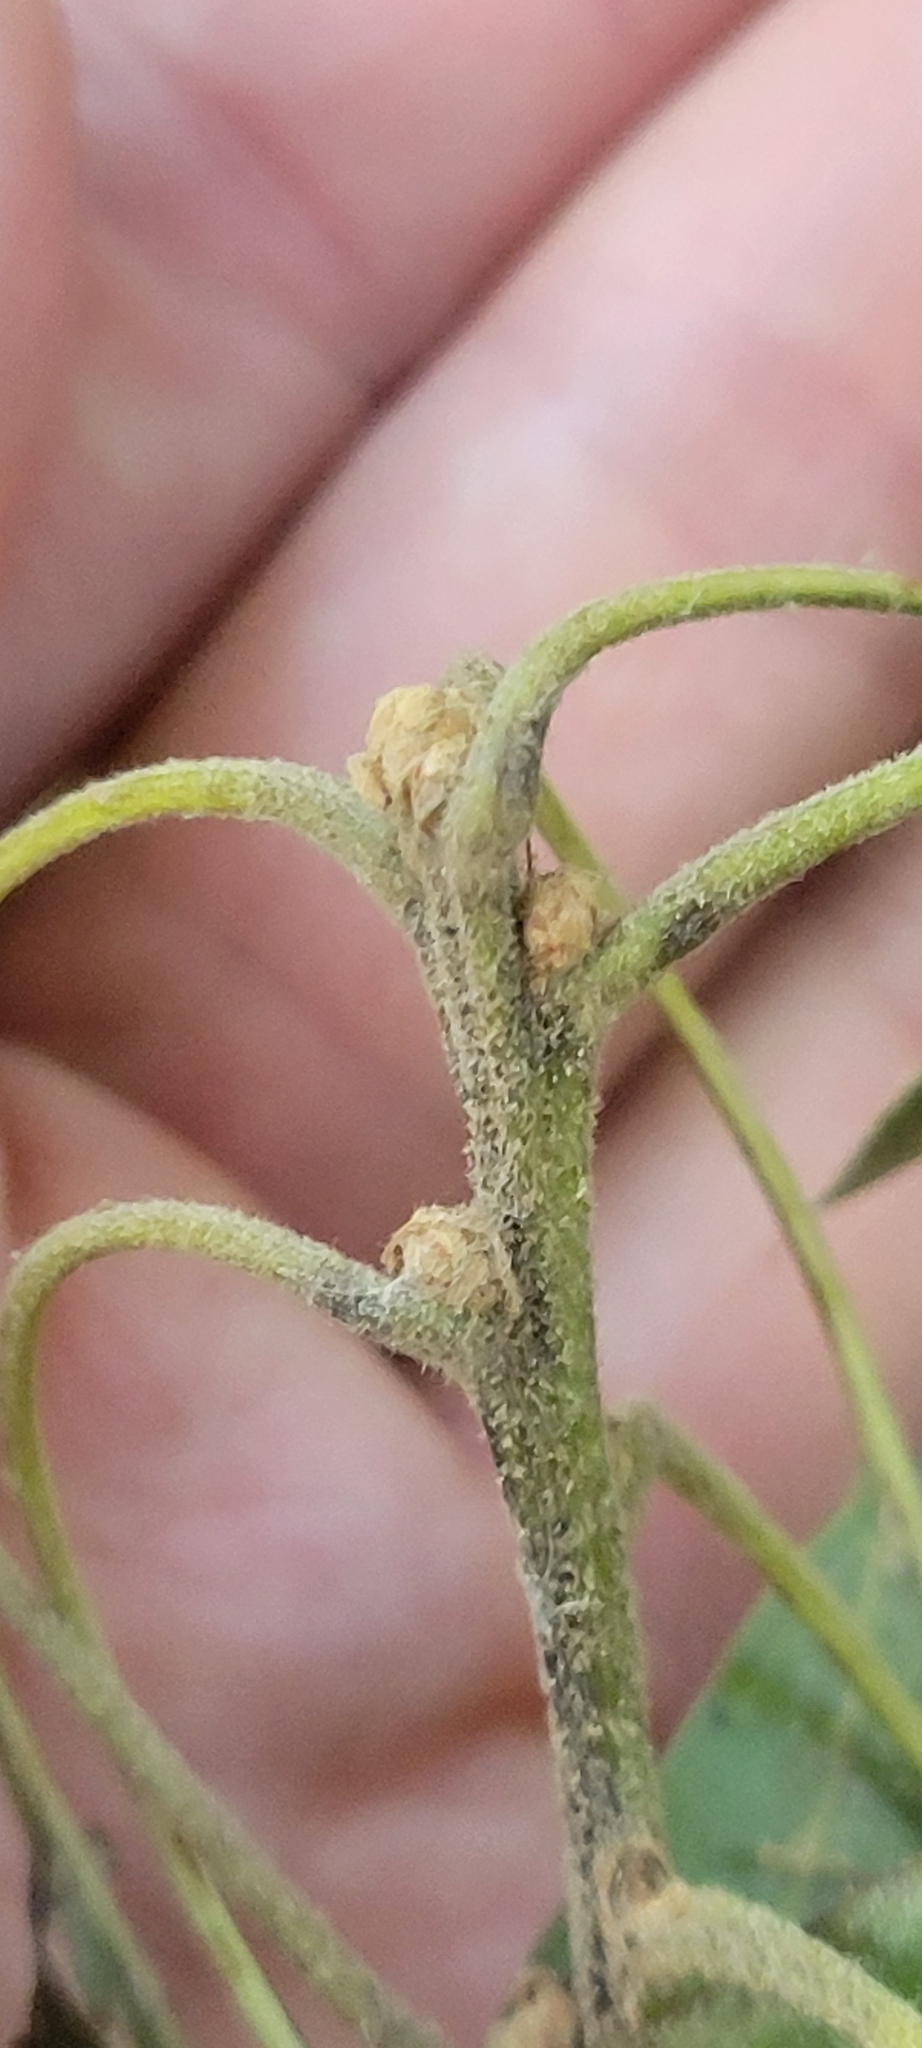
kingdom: Plantae
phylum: Tracheophyta
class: Magnoliopsida
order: Fagales
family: Fagaceae
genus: Quercus
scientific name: Quercus velutina
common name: Black oak
